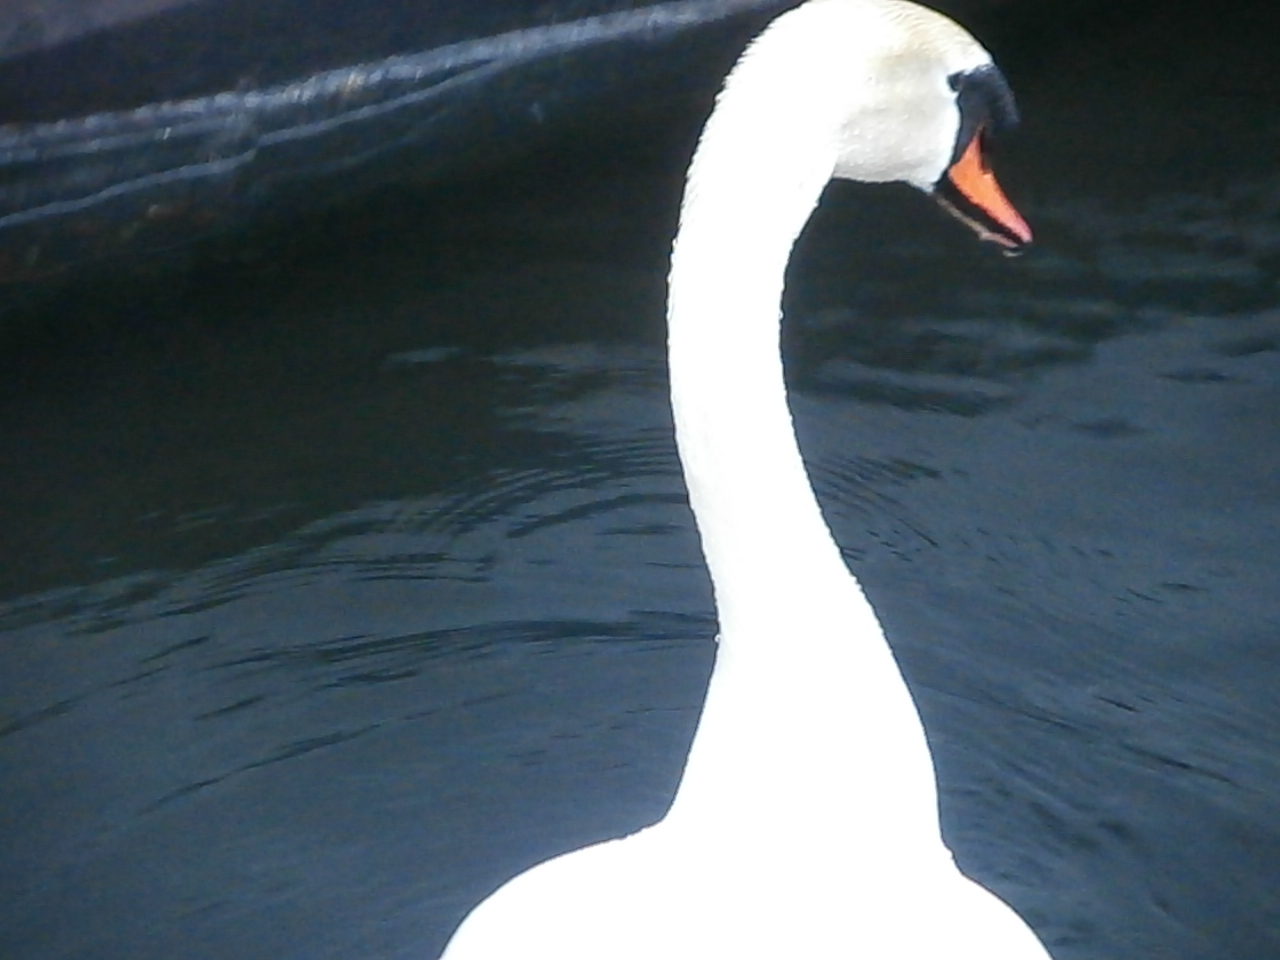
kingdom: Animalia
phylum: Chordata
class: Aves
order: Anseriformes
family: Anatidae
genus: Cygnus
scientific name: Cygnus olor
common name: Mute swan
